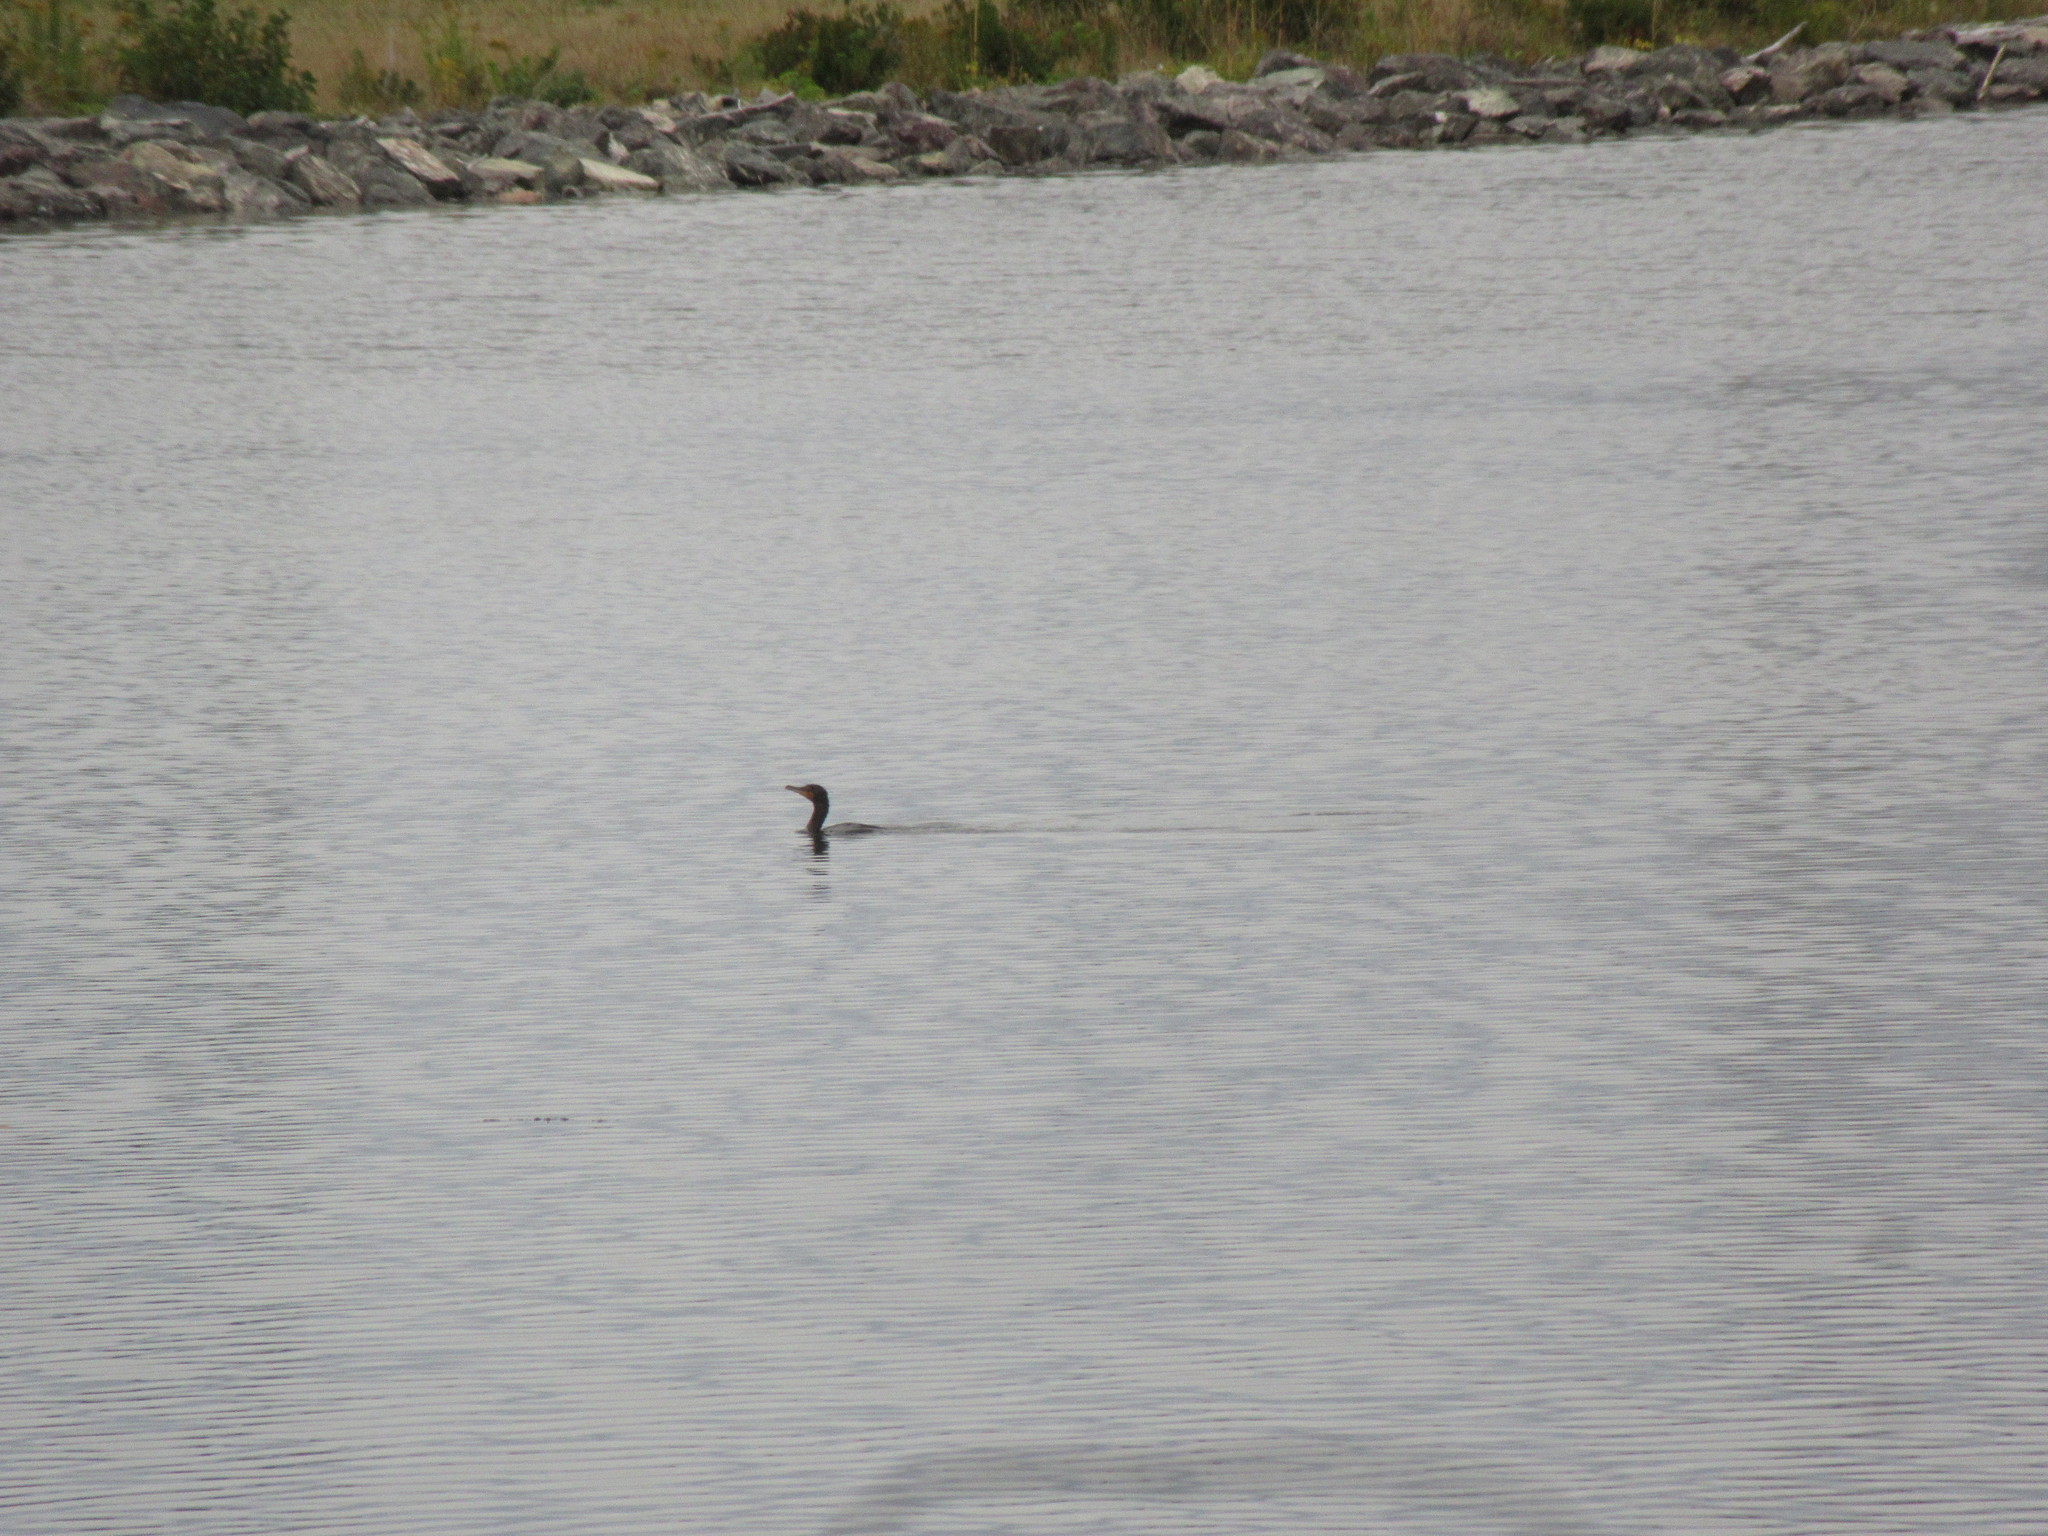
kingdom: Animalia
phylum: Chordata
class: Aves
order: Suliformes
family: Phalacrocoracidae
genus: Phalacrocorax
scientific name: Phalacrocorax auritus
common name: Double-crested cormorant
